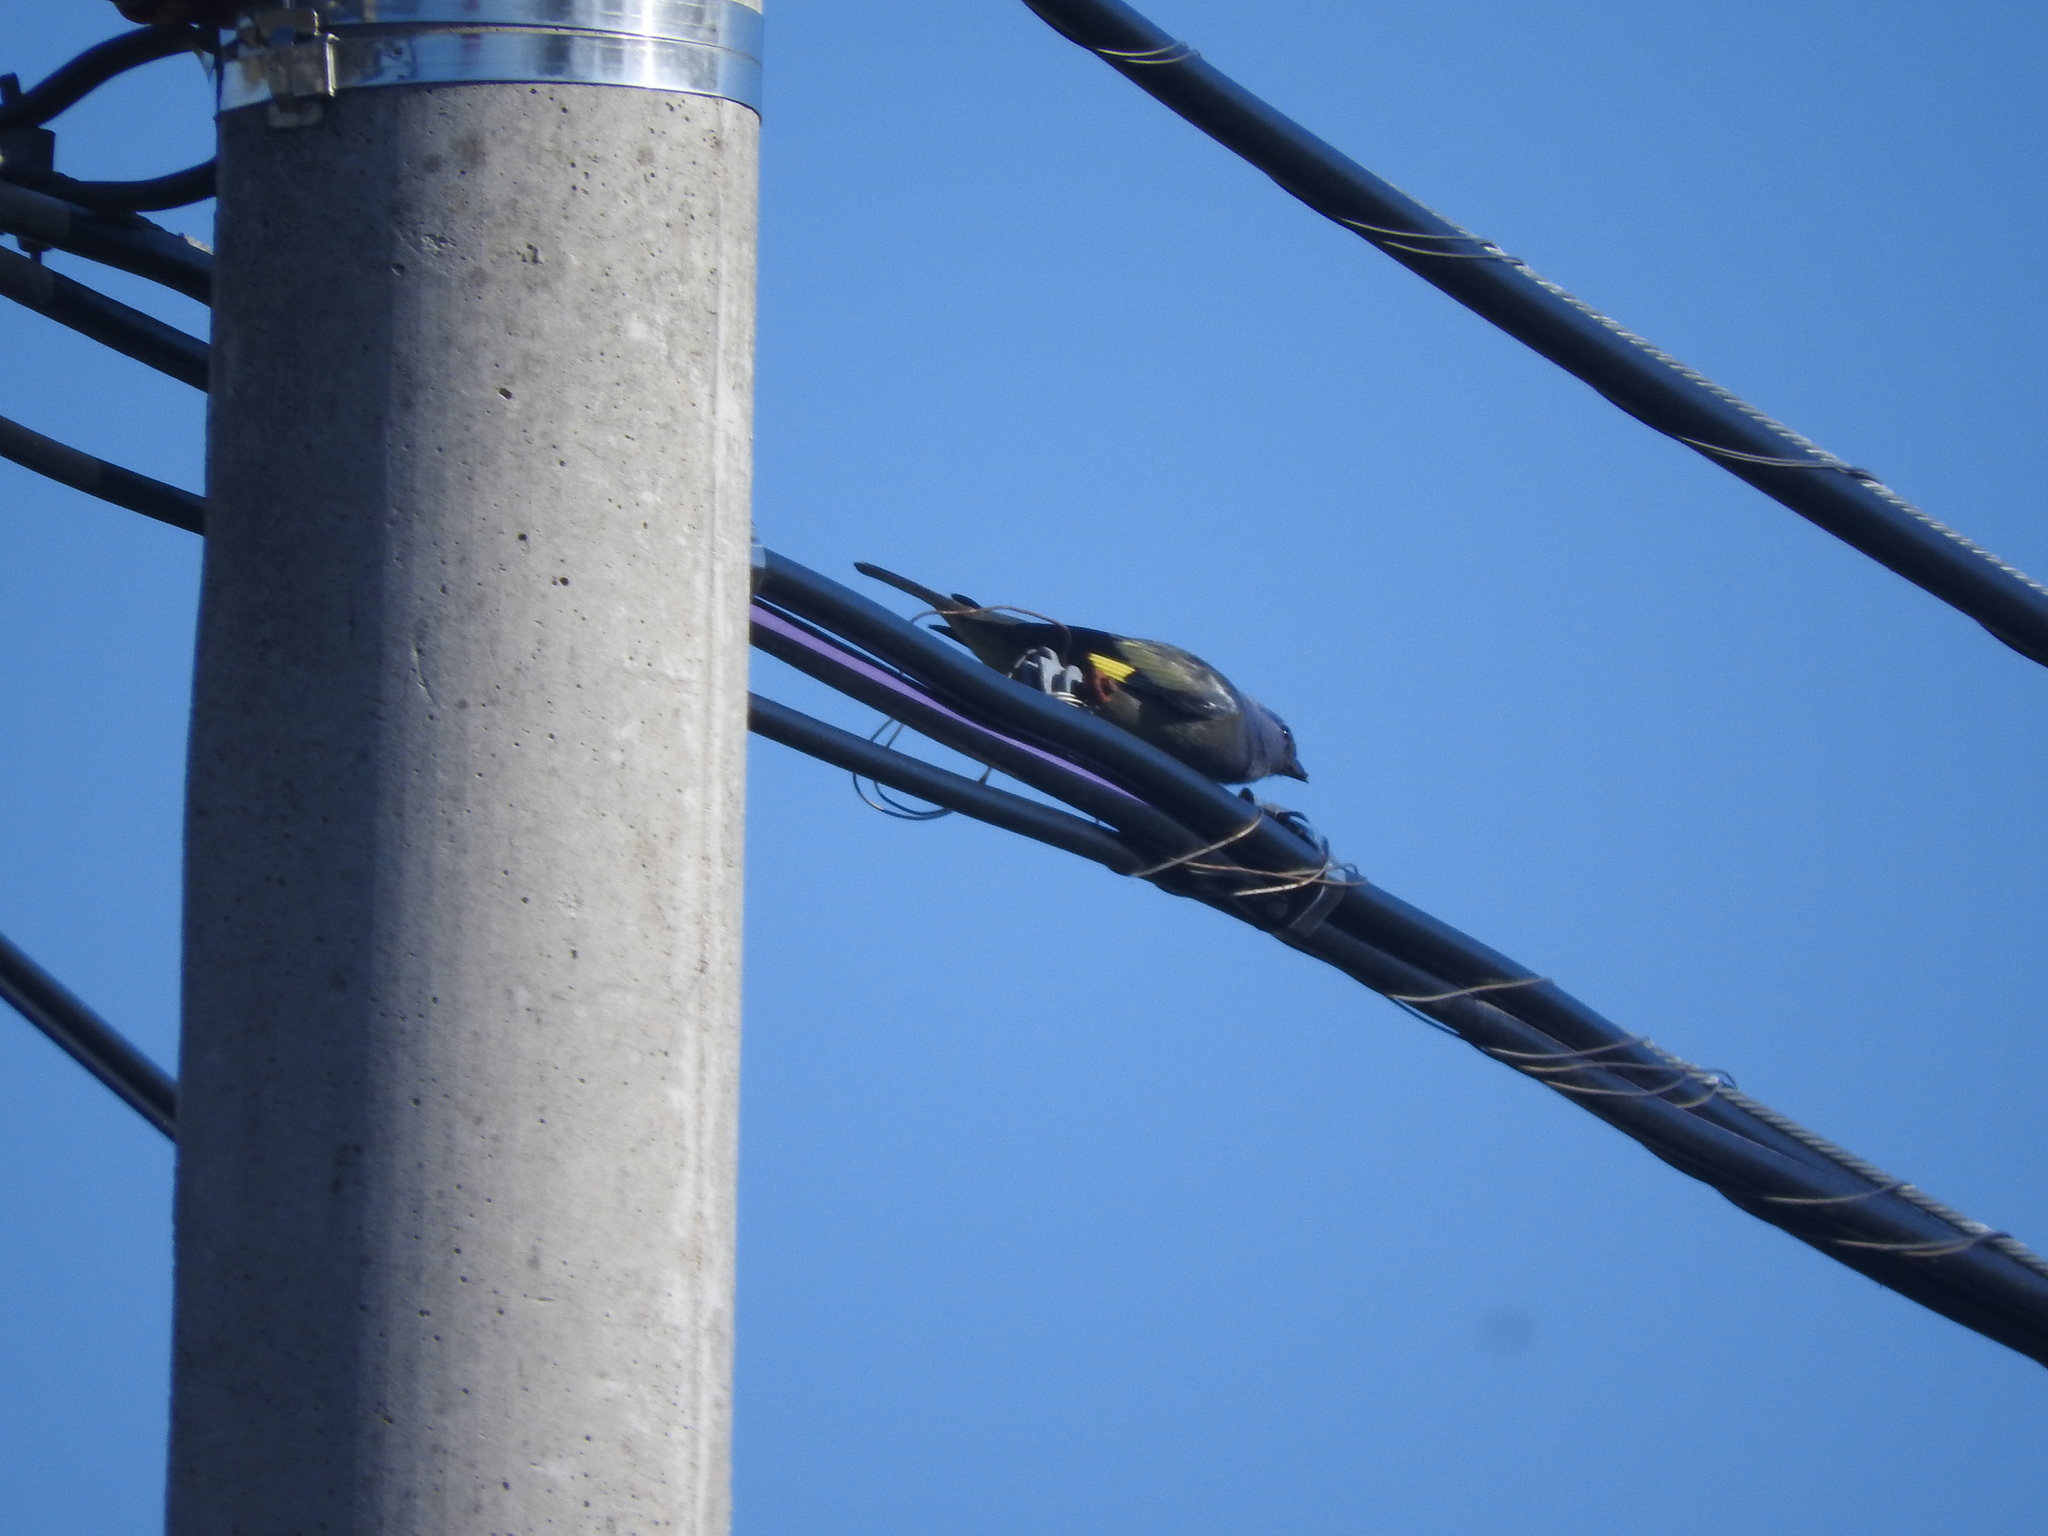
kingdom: Animalia
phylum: Chordata
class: Aves
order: Passeriformes
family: Thraupidae
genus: Thraupis
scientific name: Thraupis abbas
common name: Yellow-winged tanager
